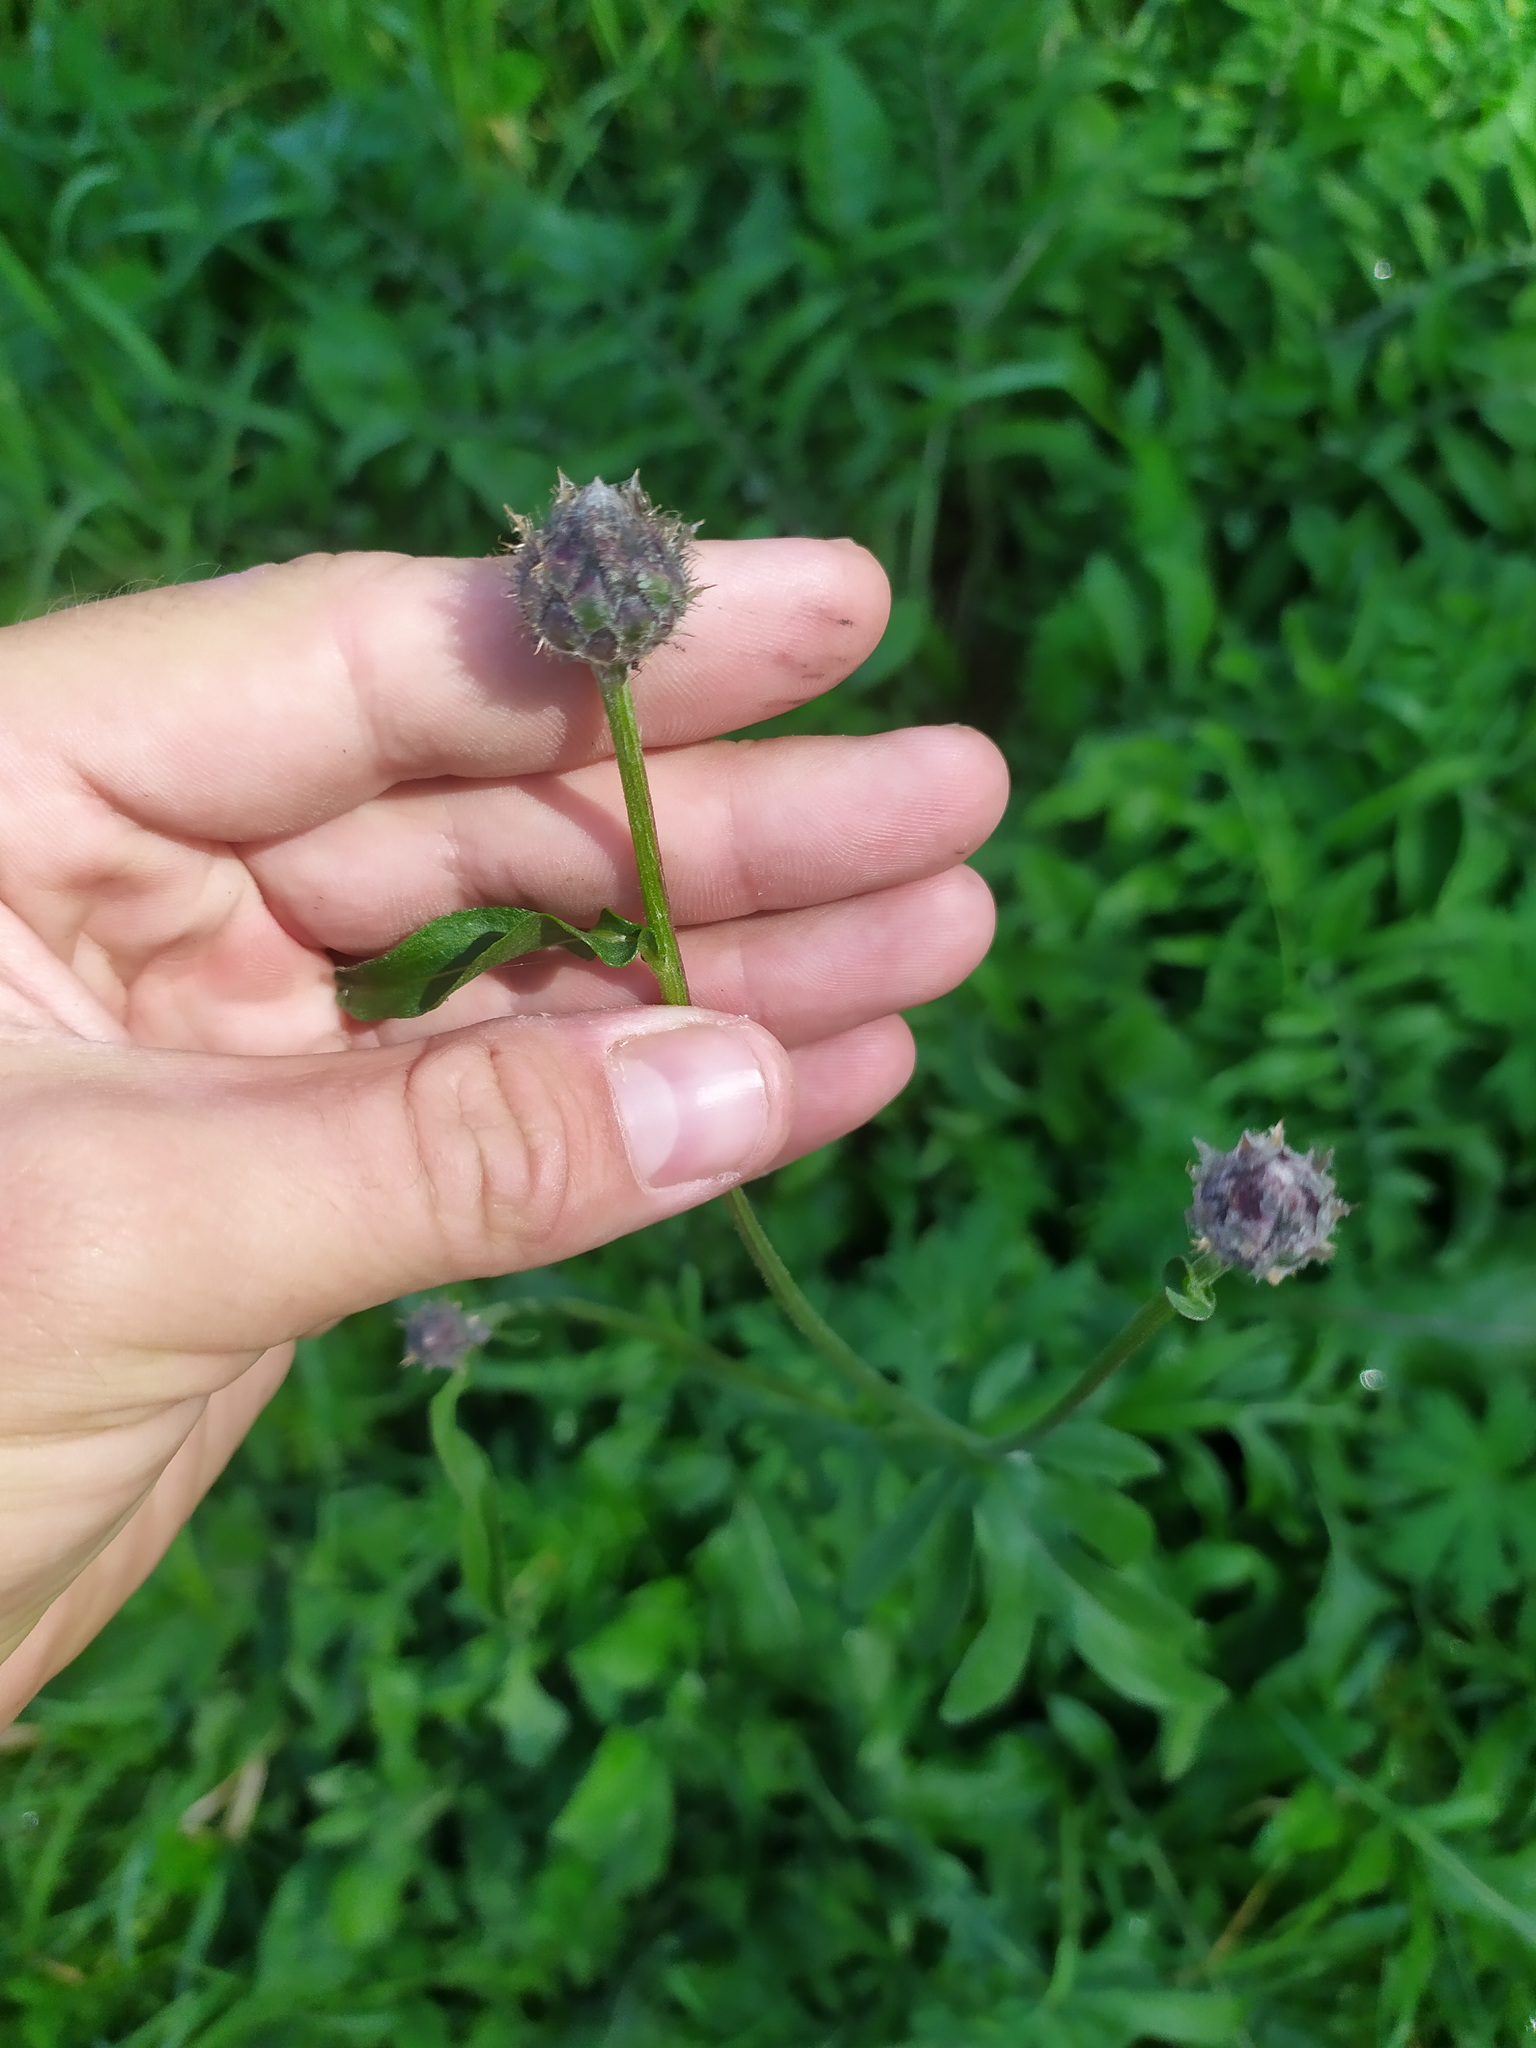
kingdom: Plantae
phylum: Tracheophyta
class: Magnoliopsida
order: Asterales
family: Asteraceae
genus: Centaurea
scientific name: Centaurea scabiosa
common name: Greater knapweed
